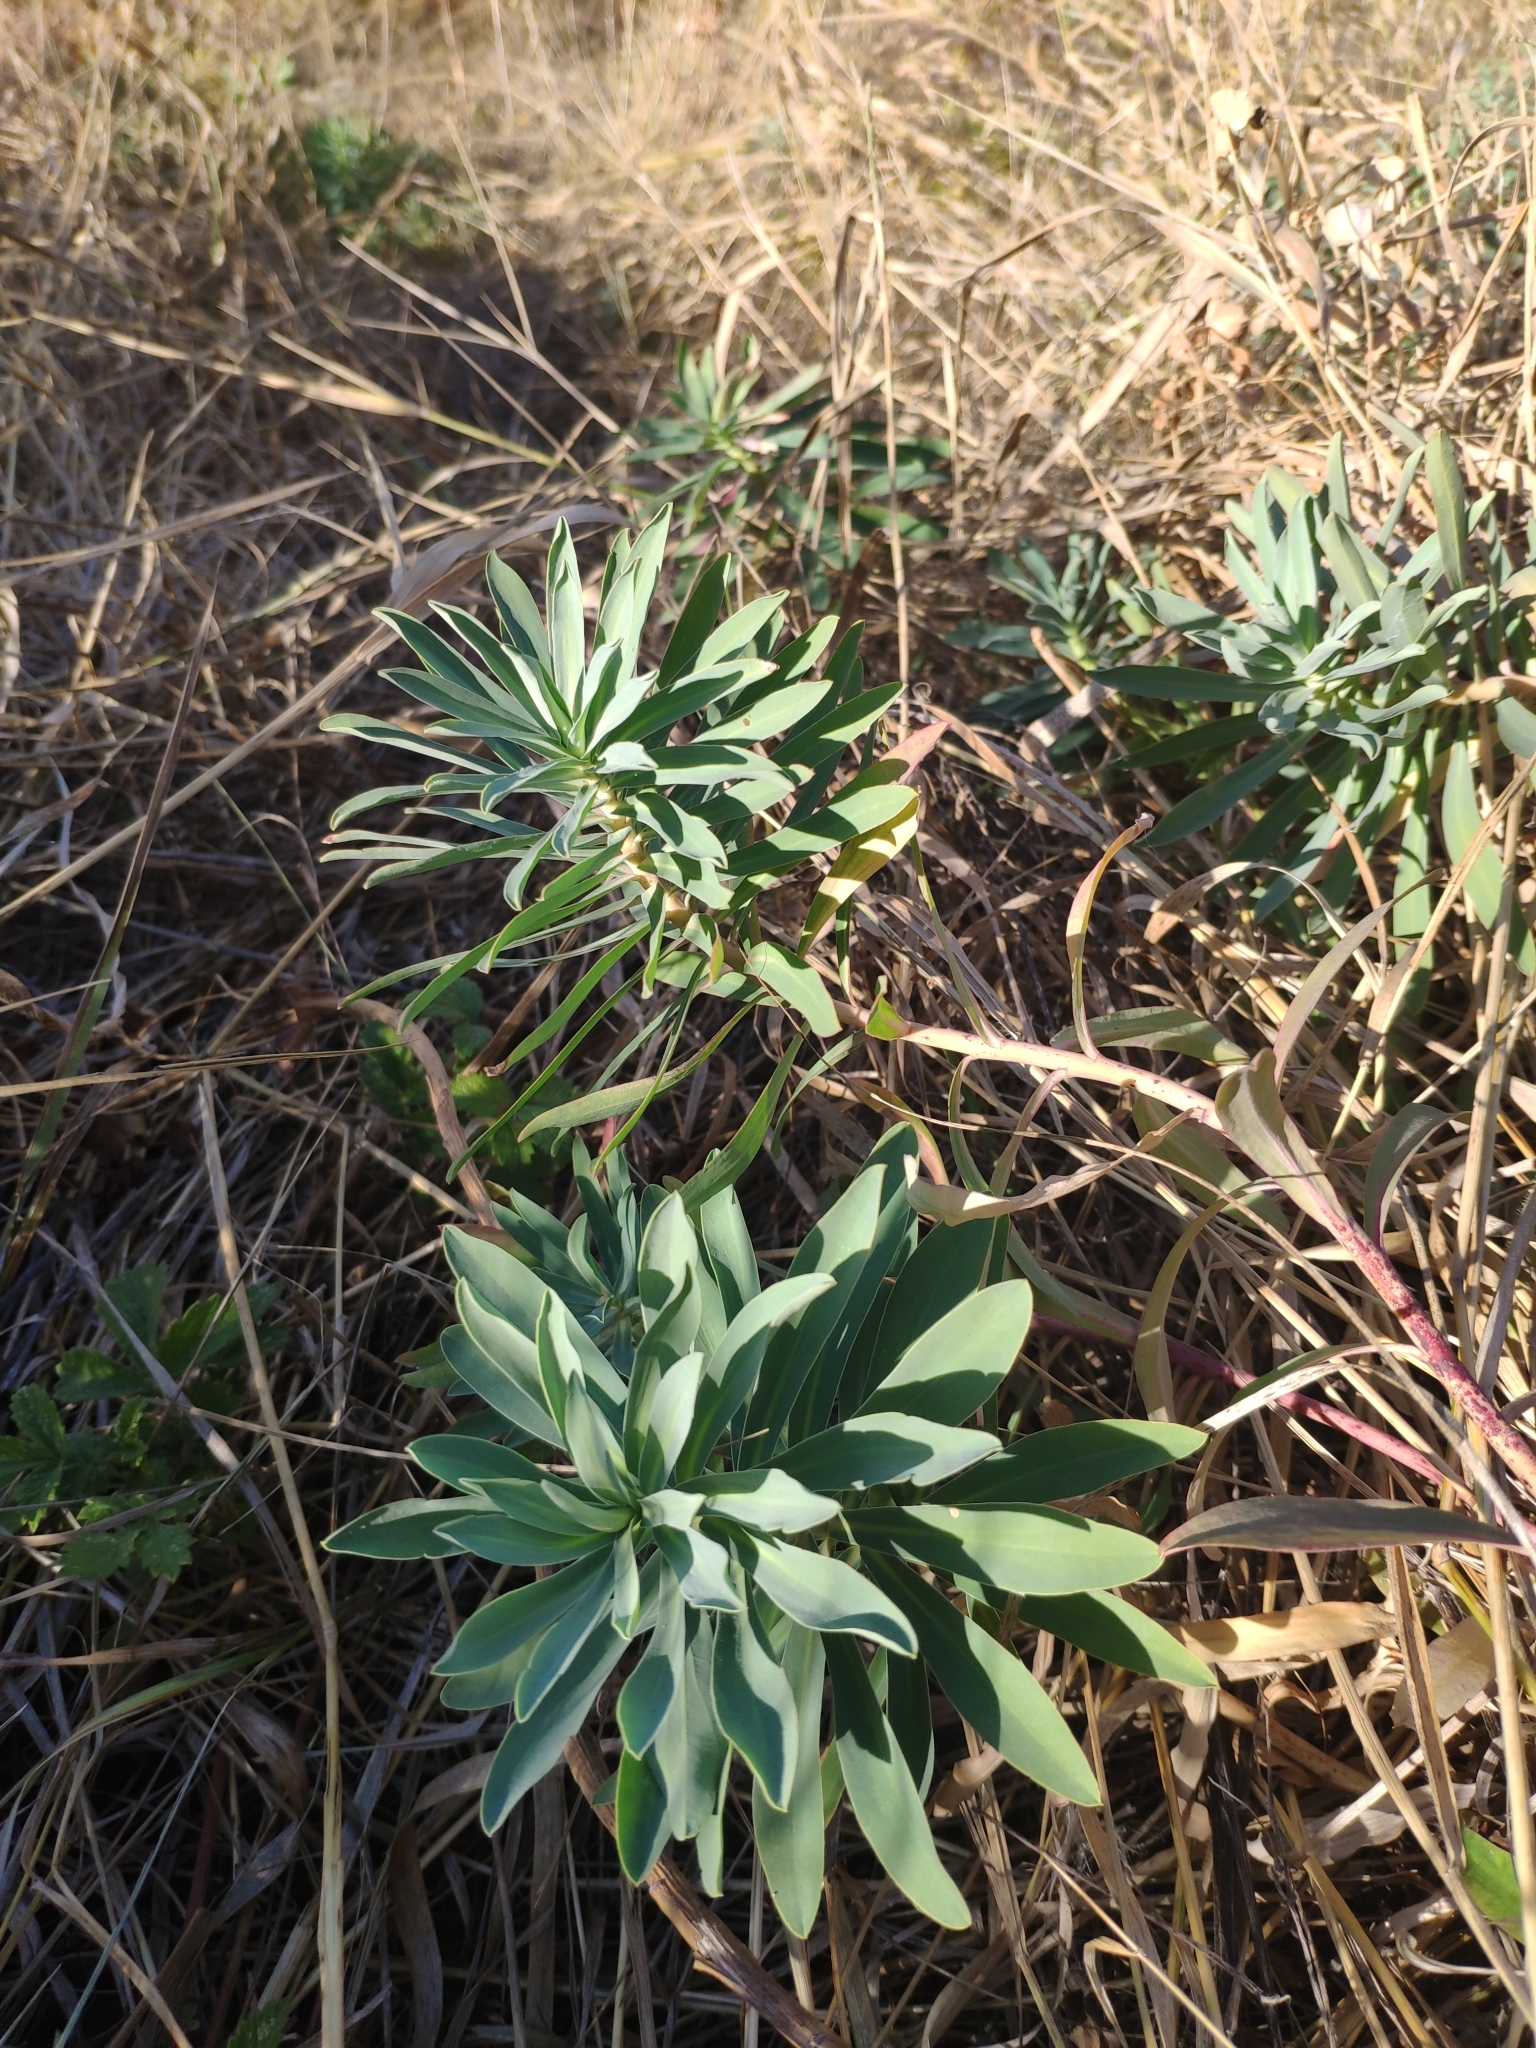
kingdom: Plantae
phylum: Tracheophyta
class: Magnoliopsida
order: Malpighiales
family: Euphorbiaceae
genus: Euphorbia
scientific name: Euphorbia stepposa
